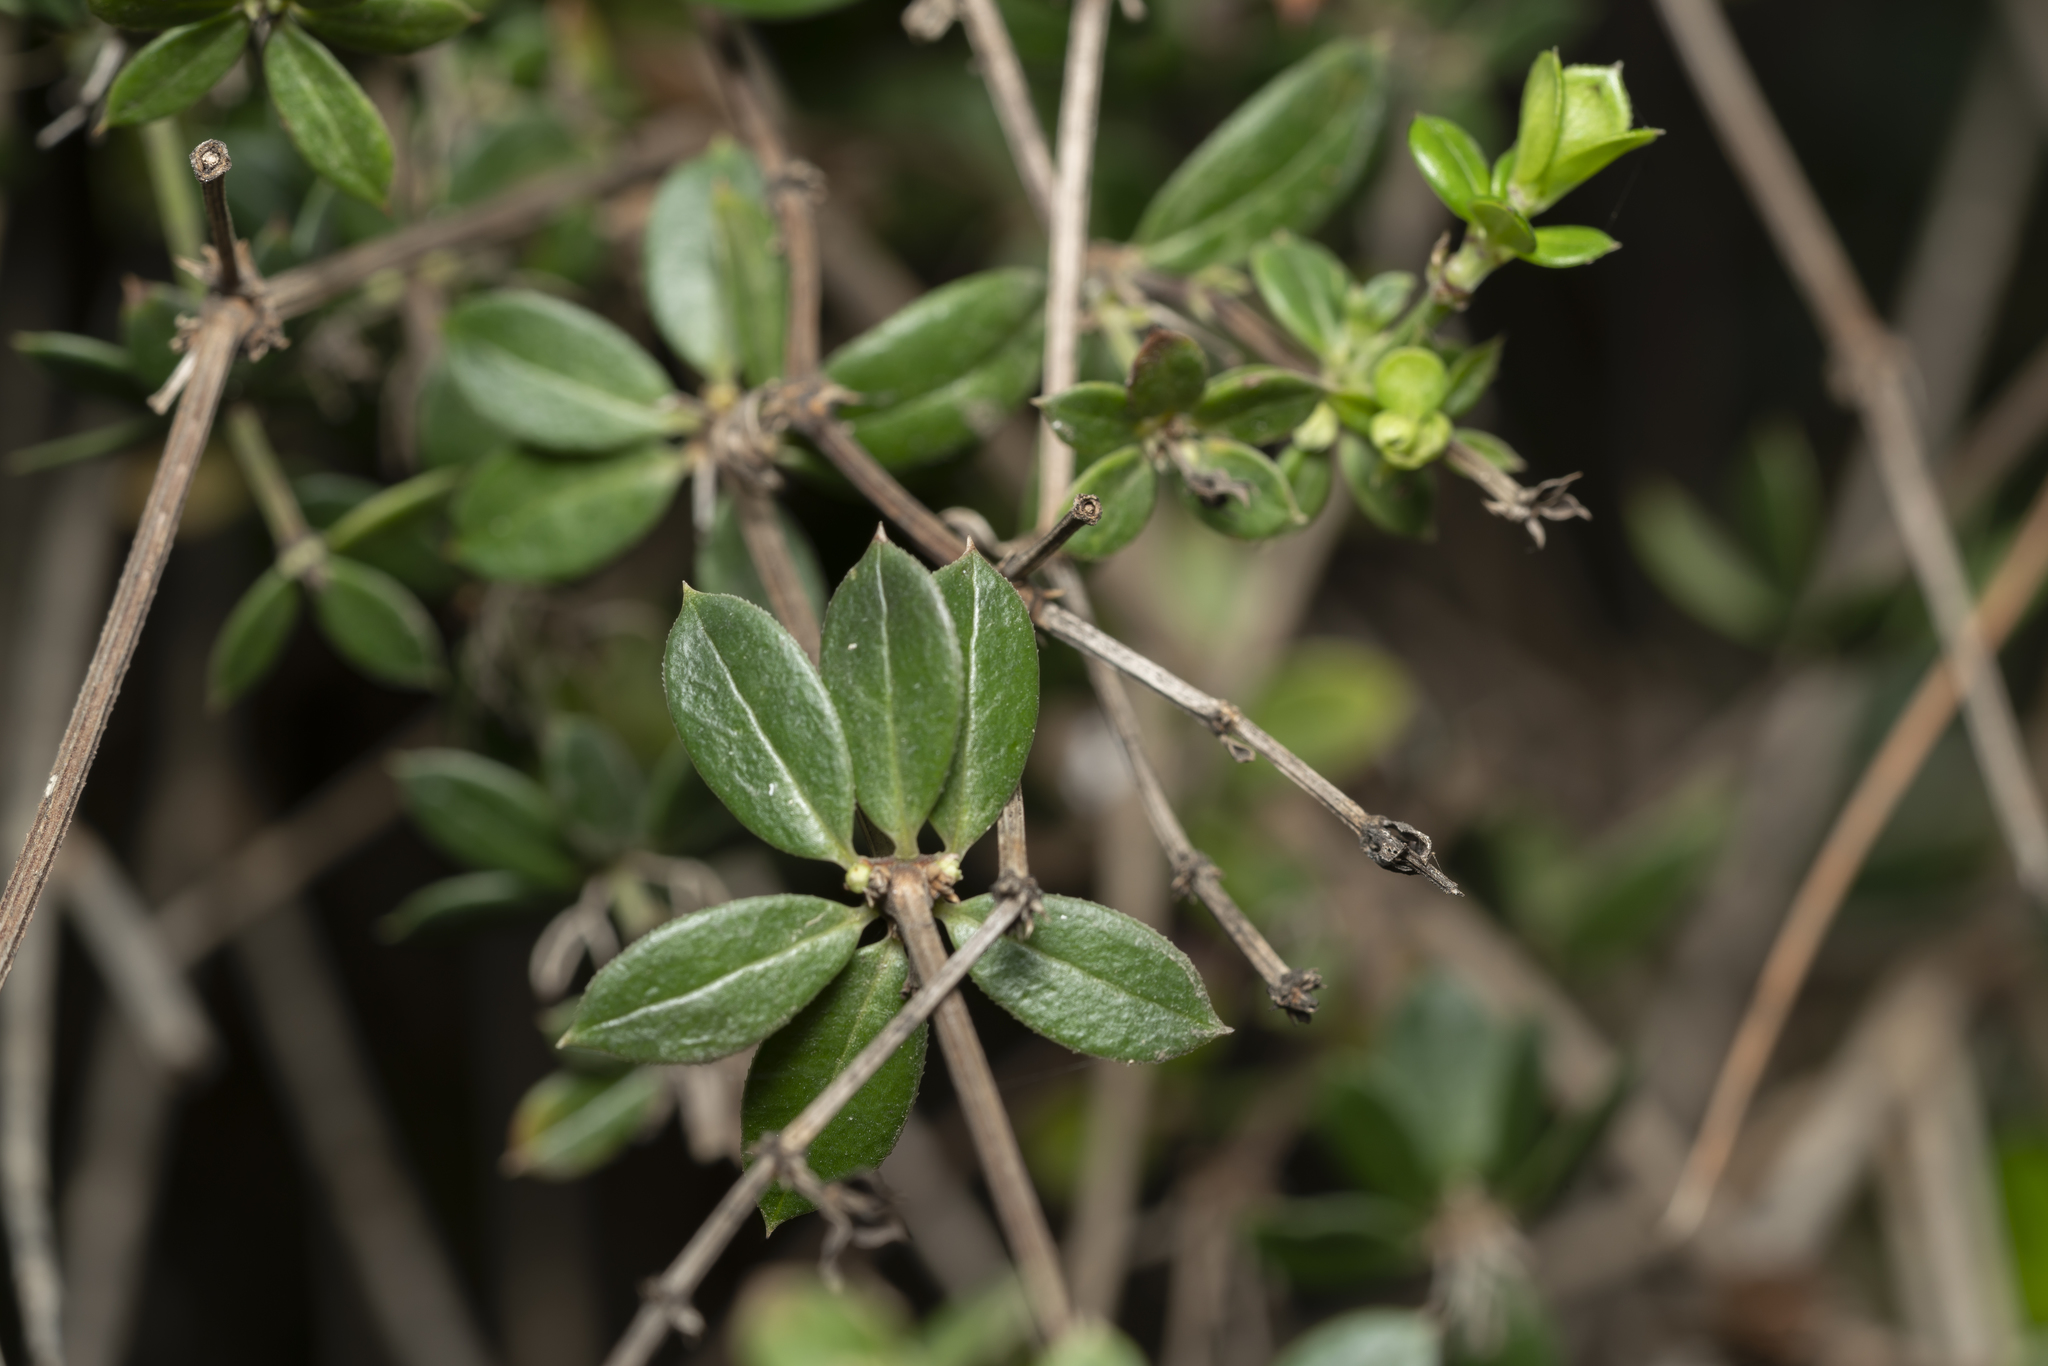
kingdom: Plantae
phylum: Tracheophyta
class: Magnoliopsida
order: Gentianales
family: Rubiaceae
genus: Rubia
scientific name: Rubia tenuifolia
